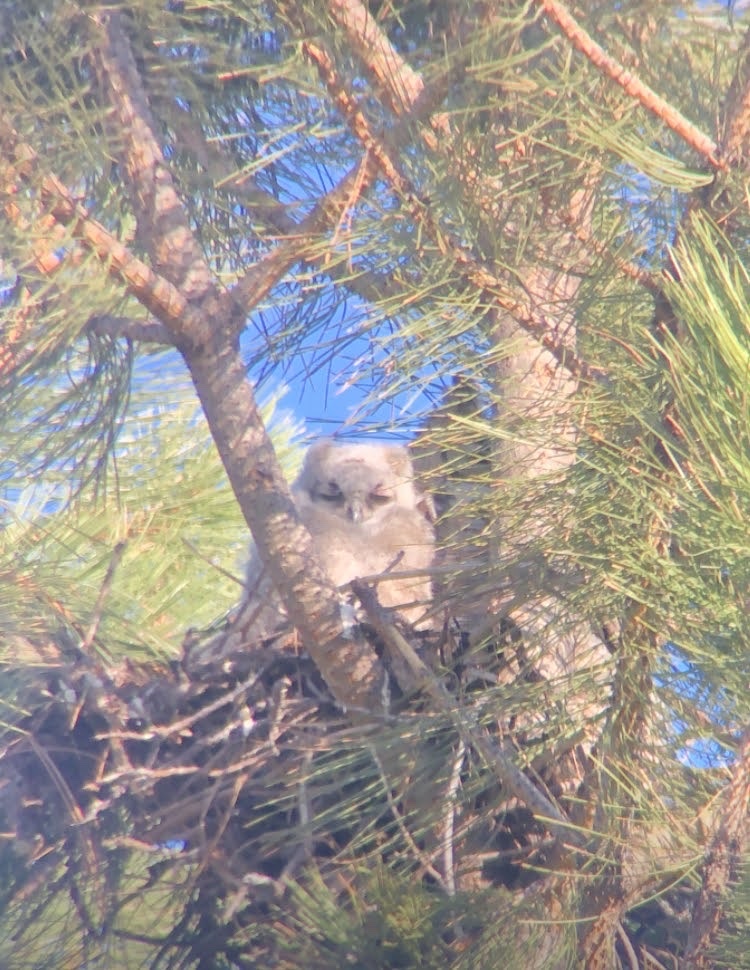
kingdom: Animalia
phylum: Chordata
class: Aves
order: Strigiformes
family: Strigidae
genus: Bubo
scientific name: Bubo virginianus
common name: Great horned owl
